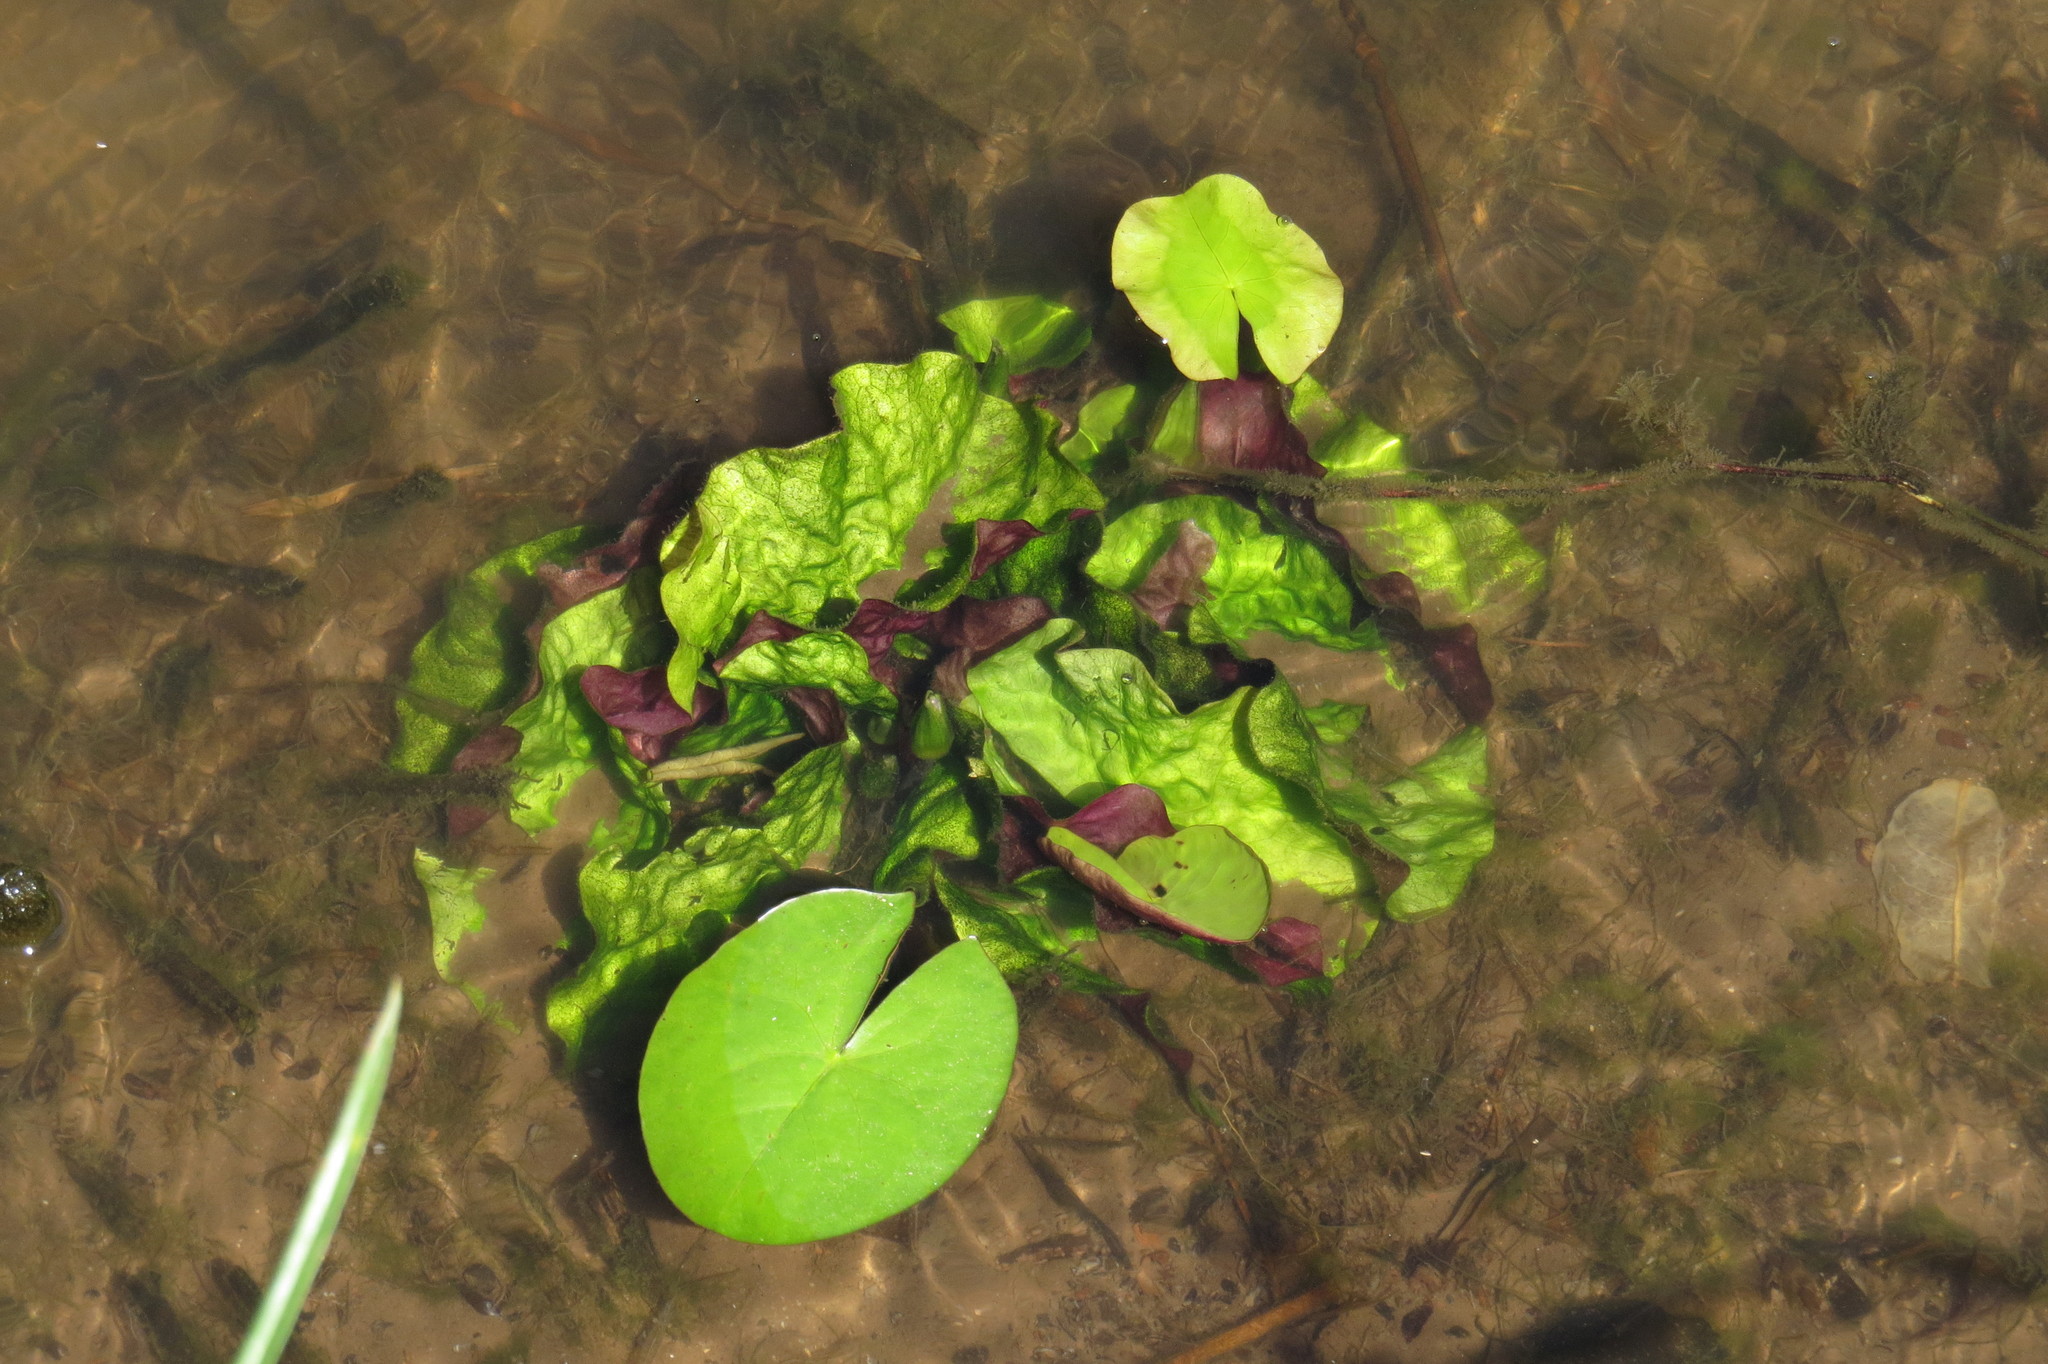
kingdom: Plantae
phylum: Tracheophyta
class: Magnoliopsida
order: Nymphaeales
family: Nymphaeaceae
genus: Nymphaea
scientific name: Nymphaea nouchali
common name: Blue lotus
